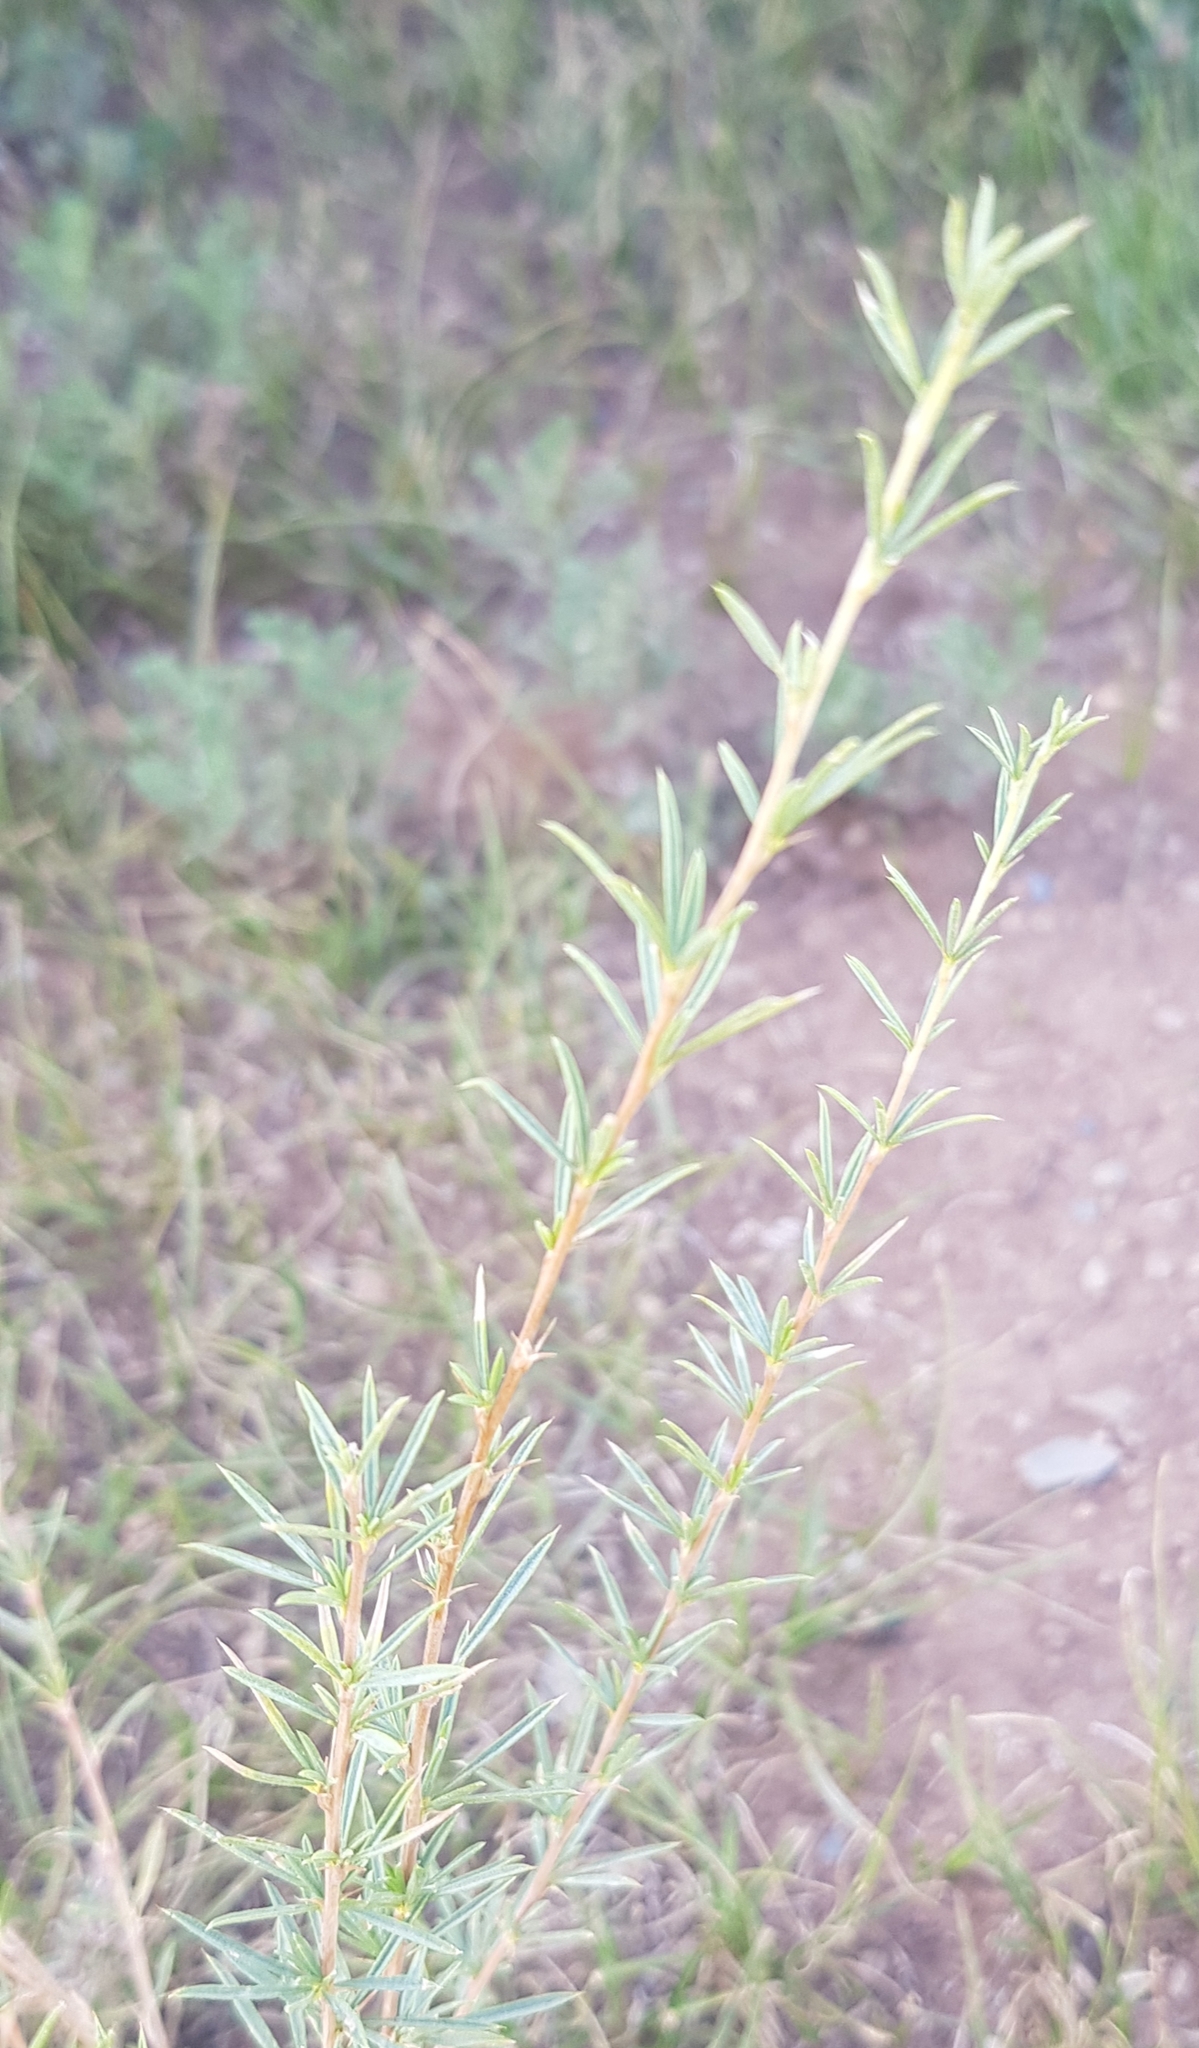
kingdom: Plantae
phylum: Tracheophyta
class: Magnoliopsida
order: Fabales
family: Fabaceae
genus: Caragana
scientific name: Caragana stenophylla
